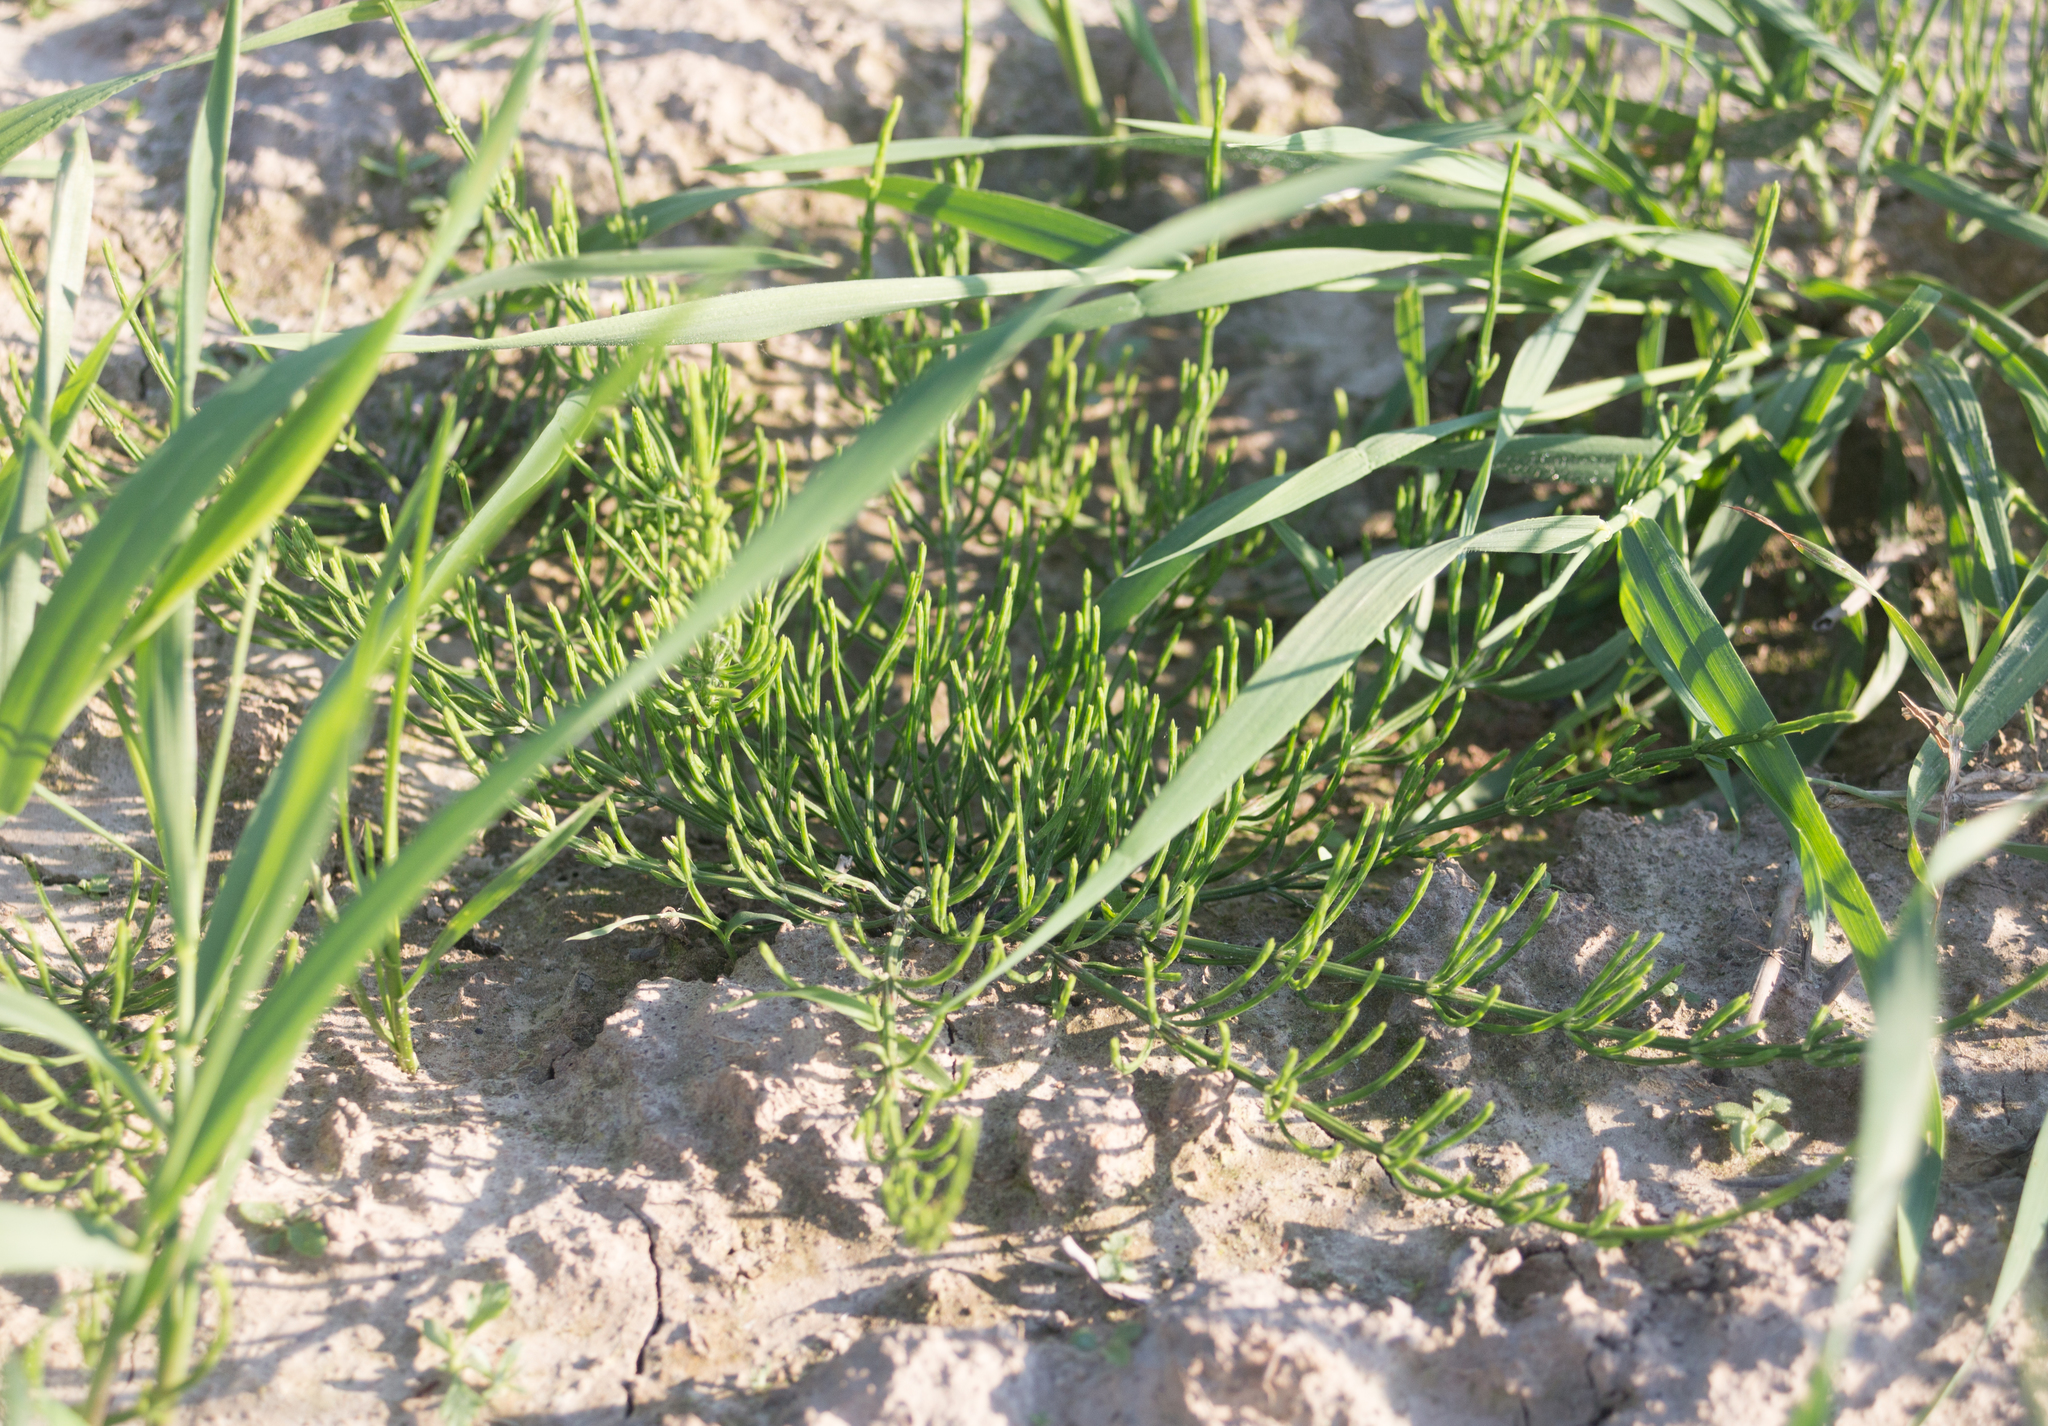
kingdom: Plantae
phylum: Tracheophyta
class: Polypodiopsida
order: Equisetales
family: Equisetaceae
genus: Equisetum
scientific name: Equisetum arvense
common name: Field horsetail
